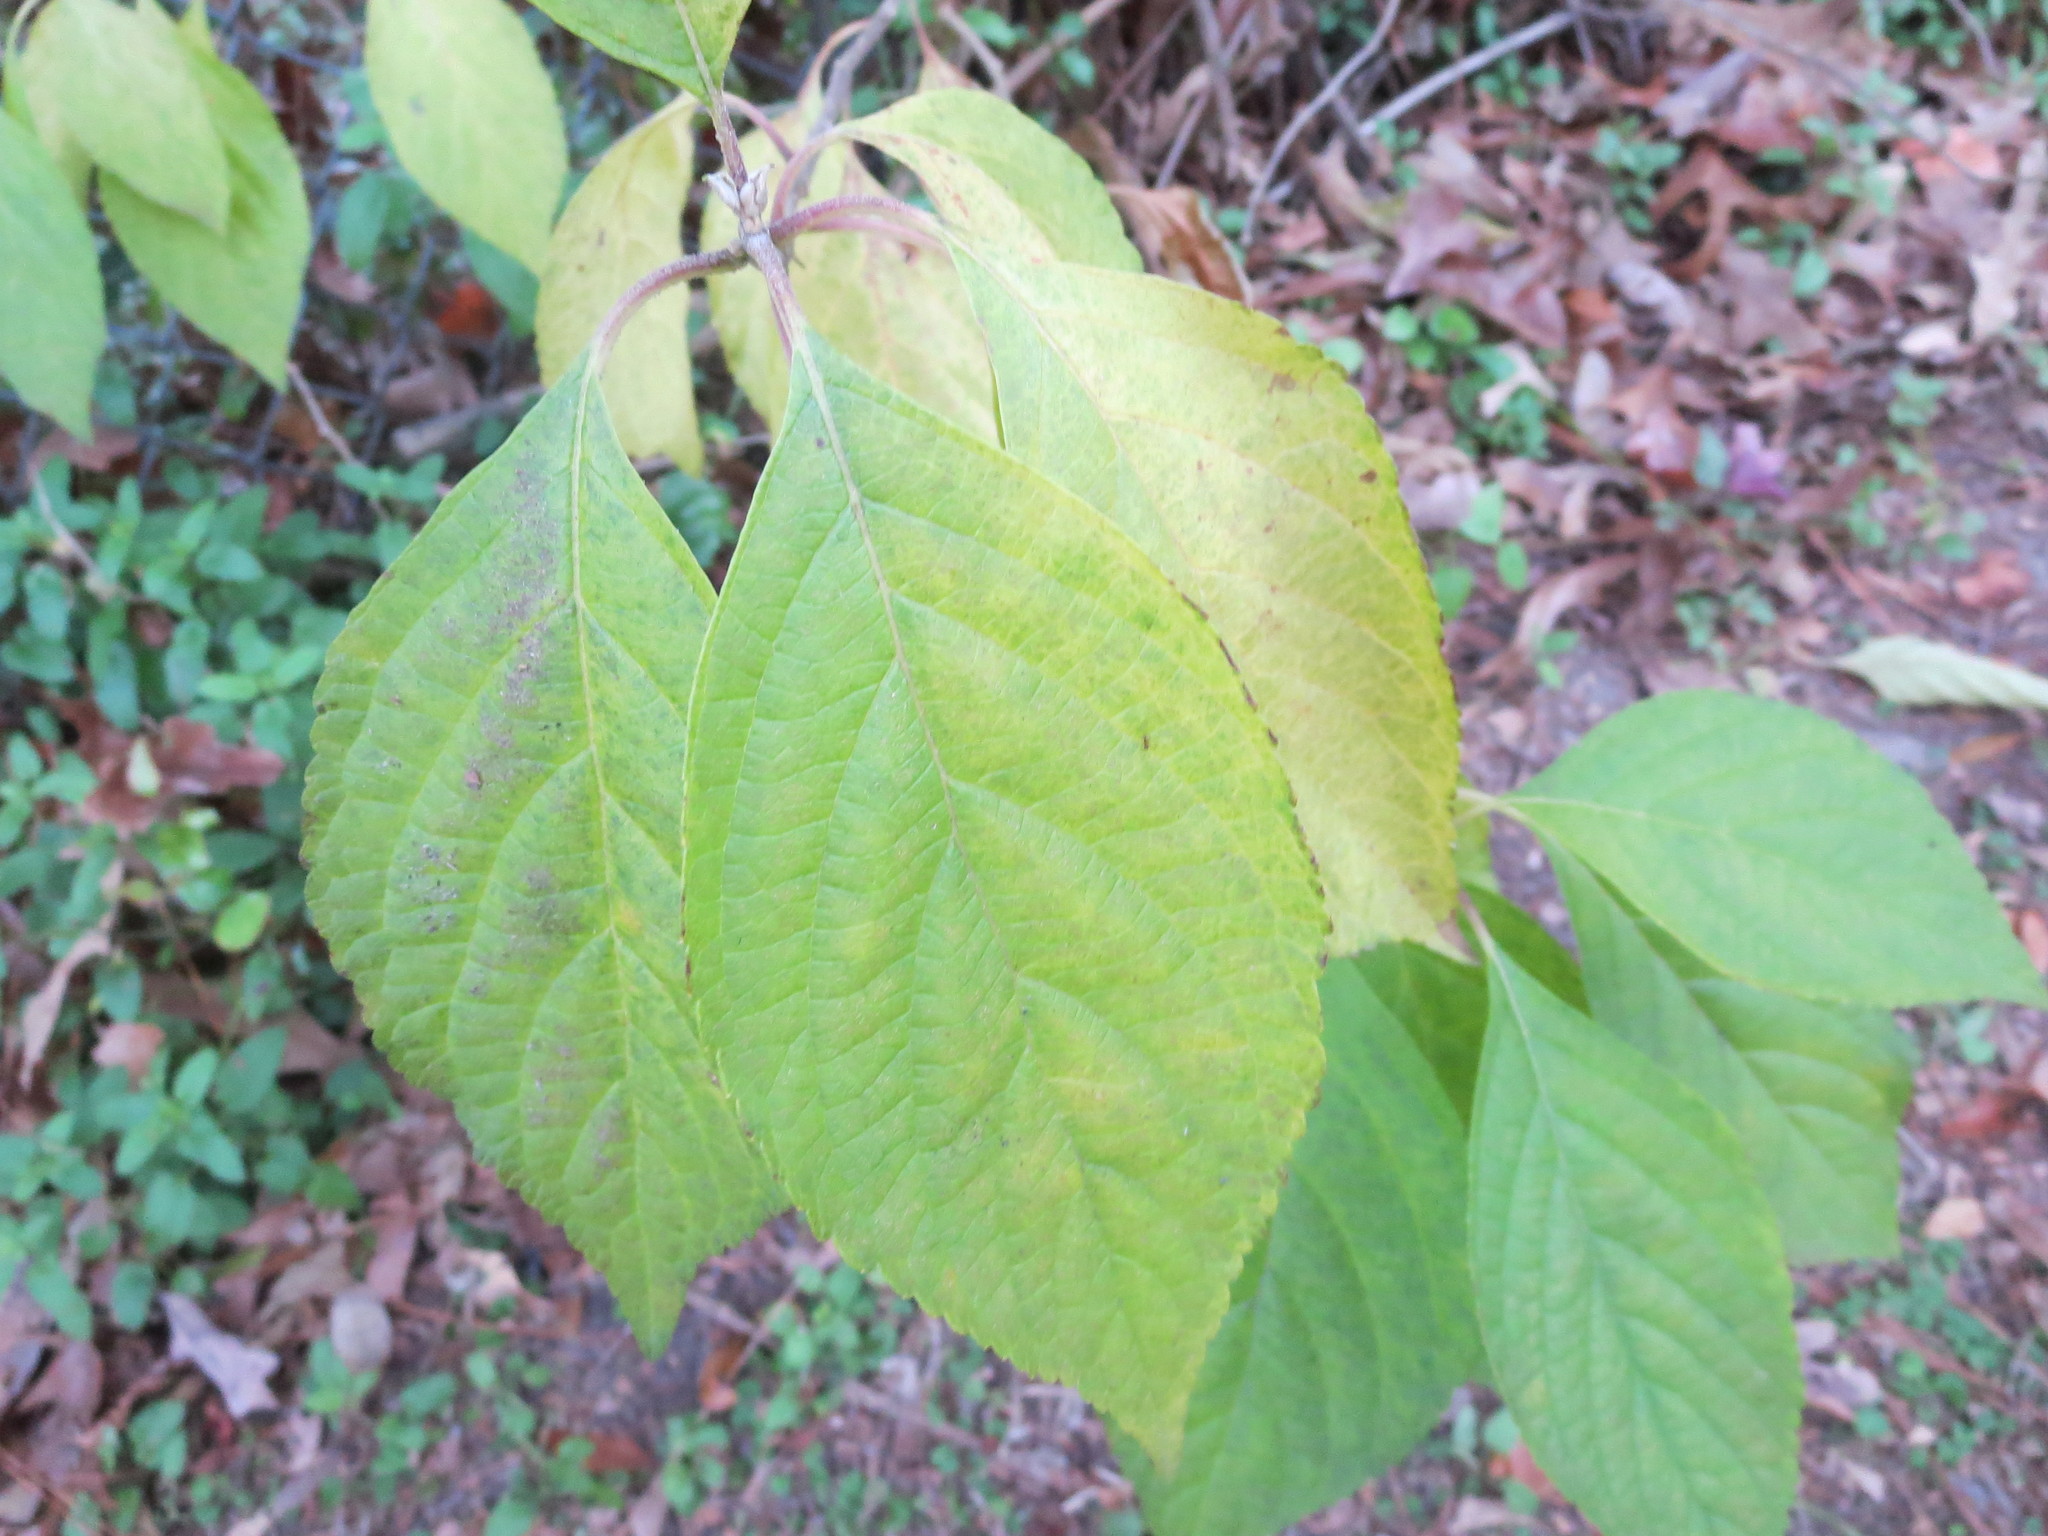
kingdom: Plantae
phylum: Tracheophyta
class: Magnoliopsida
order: Lamiales
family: Lamiaceae
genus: Callicarpa
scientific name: Callicarpa americana
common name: American beautyberry
